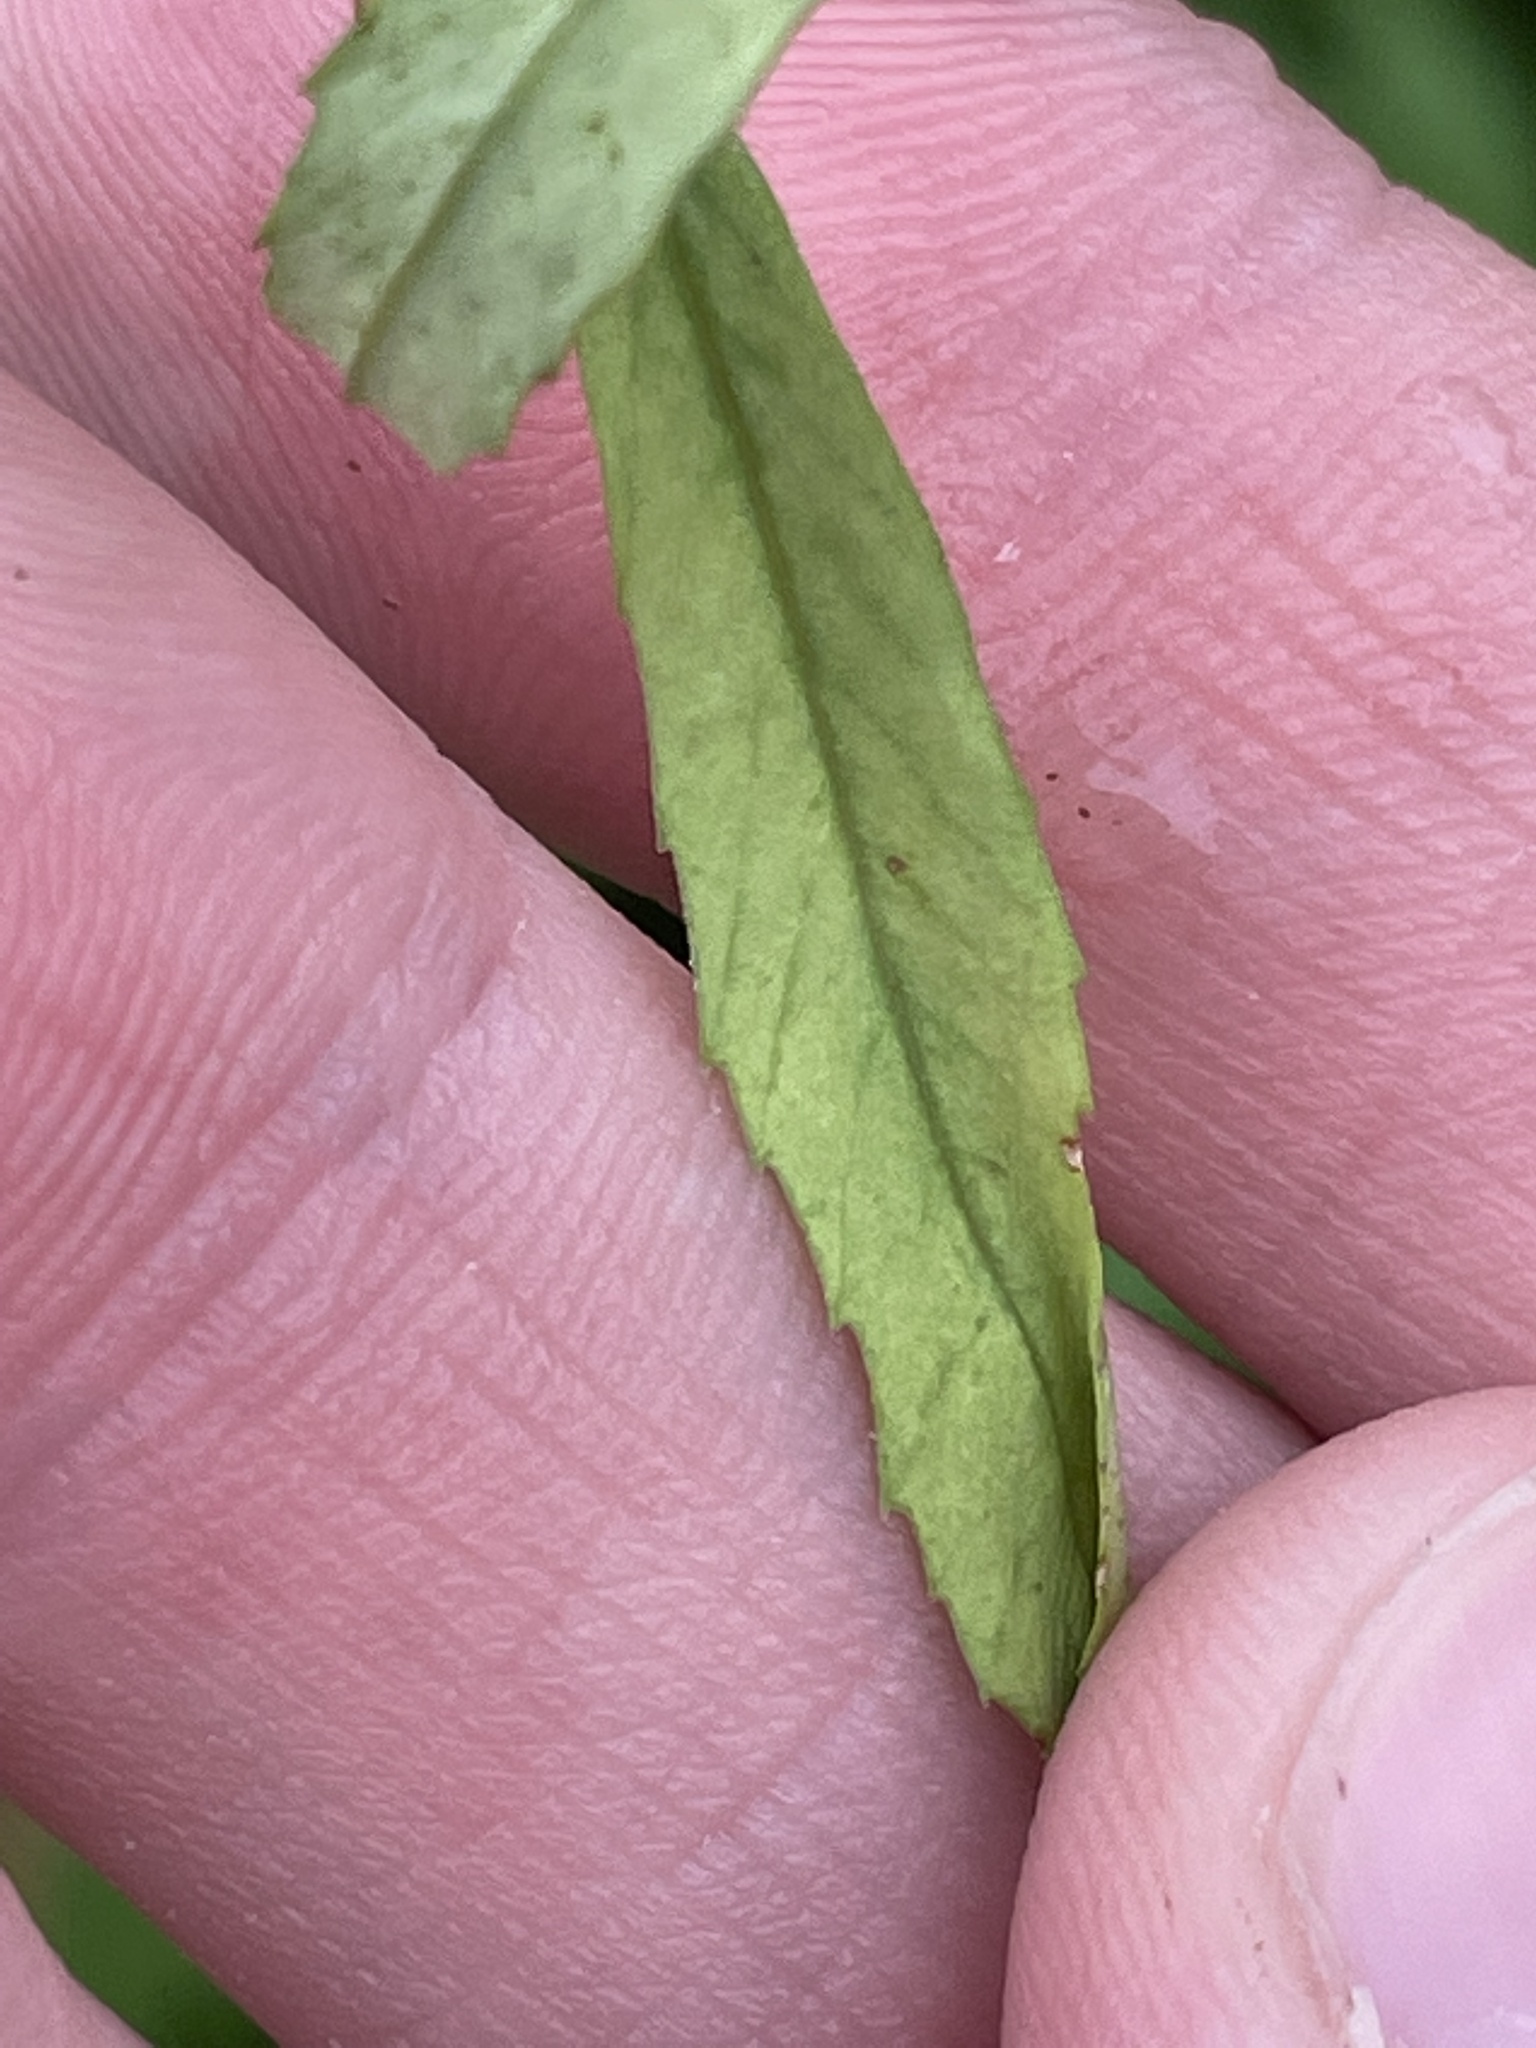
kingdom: Plantae
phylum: Tracheophyta
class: Magnoliopsida
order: Fabales
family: Fabaceae
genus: Melilotus
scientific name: Melilotus officinalis
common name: Sweetclover
